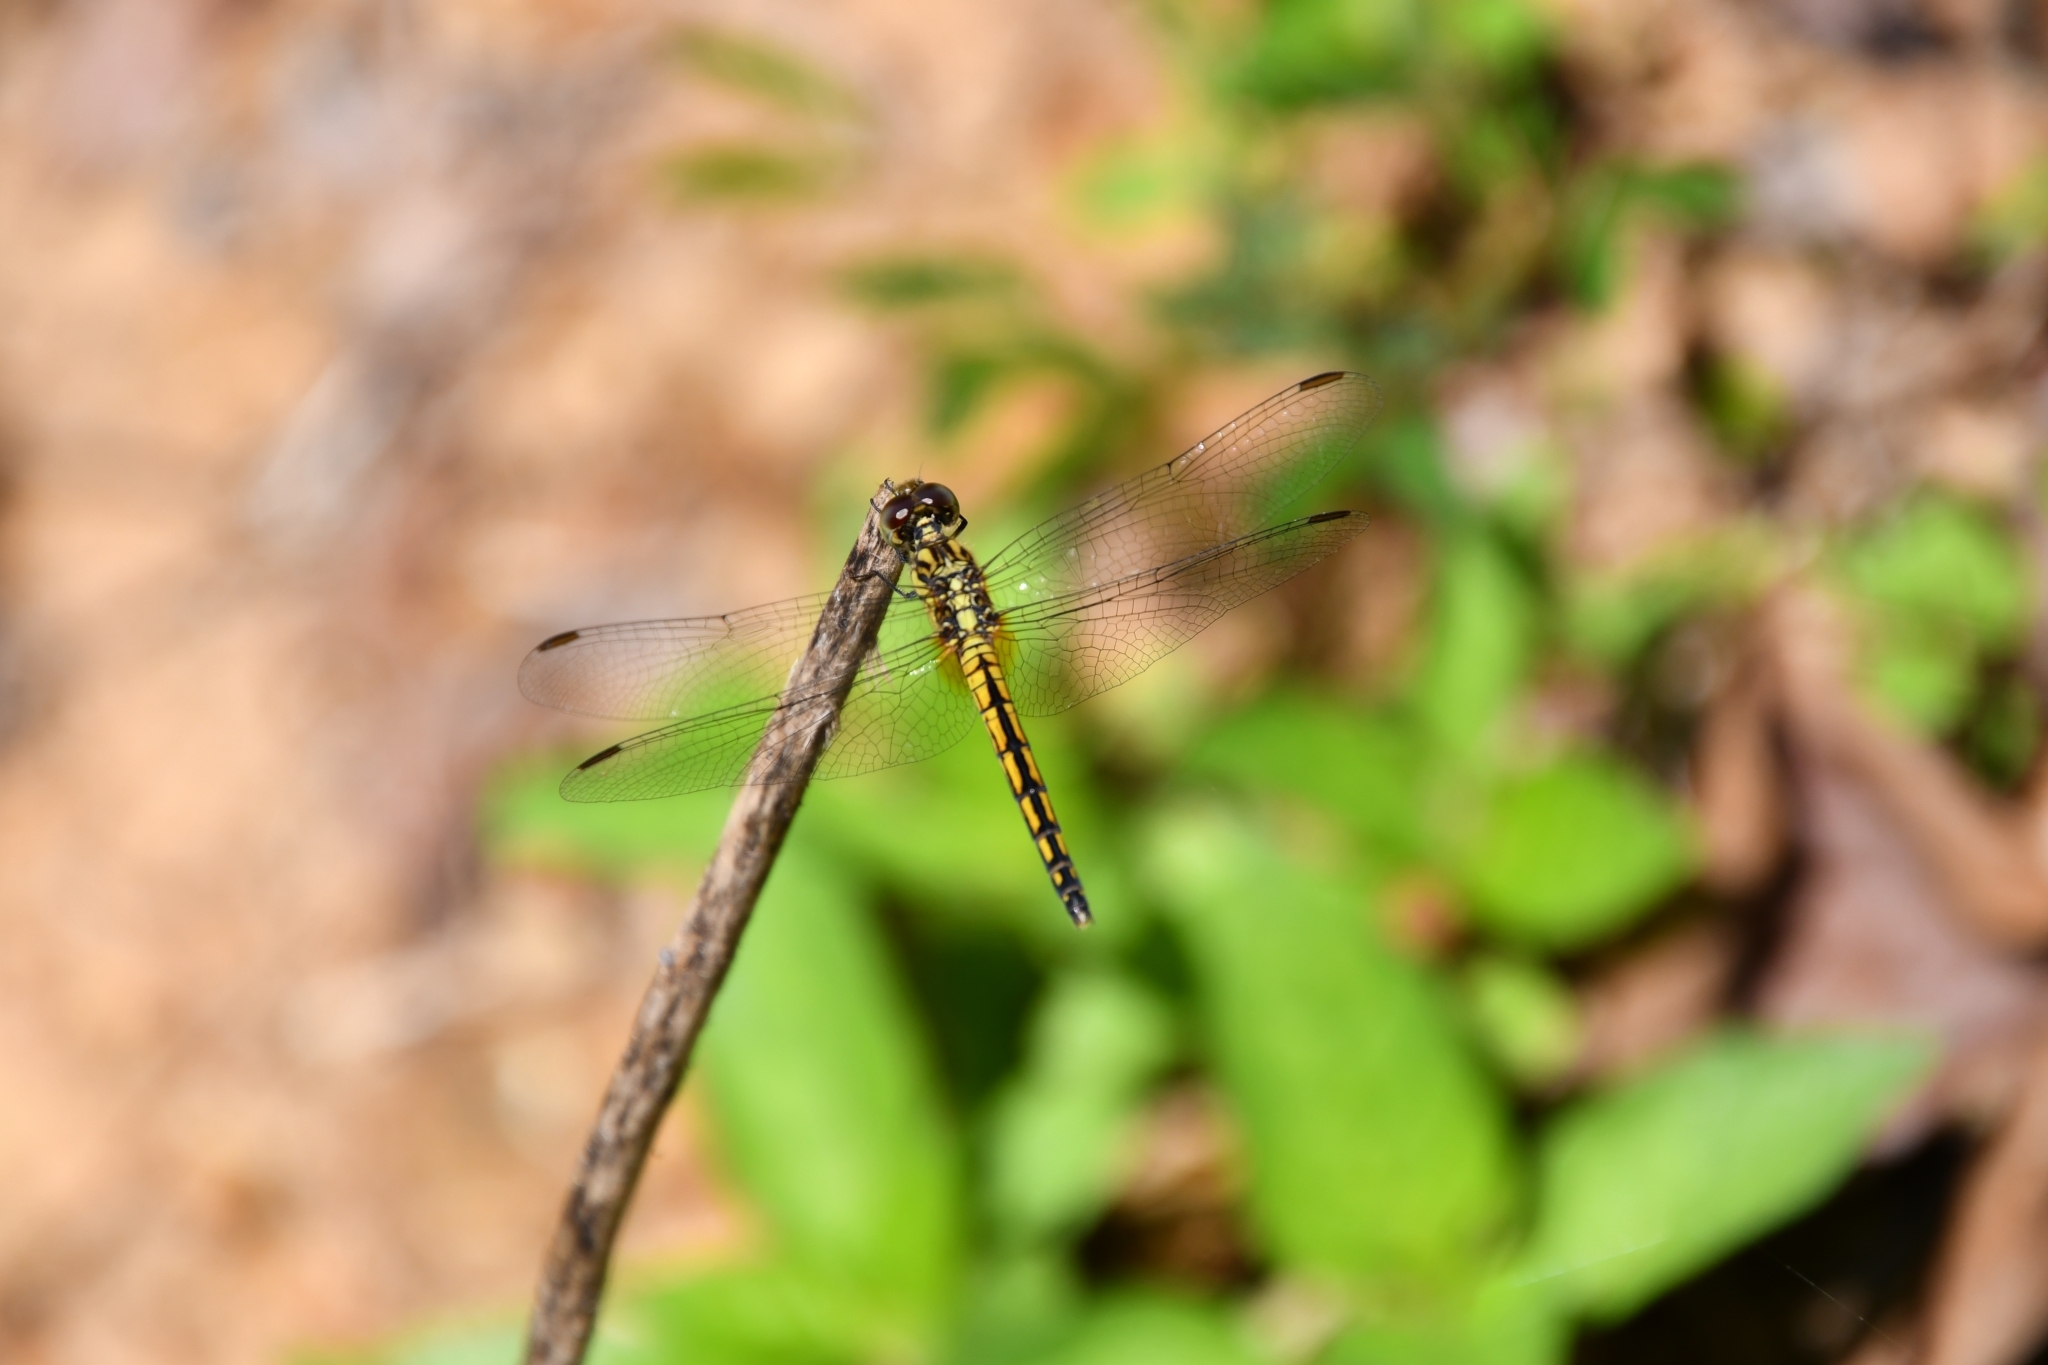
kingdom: Animalia
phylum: Arthropoda
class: Insecta
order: Odonata
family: Libellulidae
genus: Indothemis
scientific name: Indothemis carnatica
